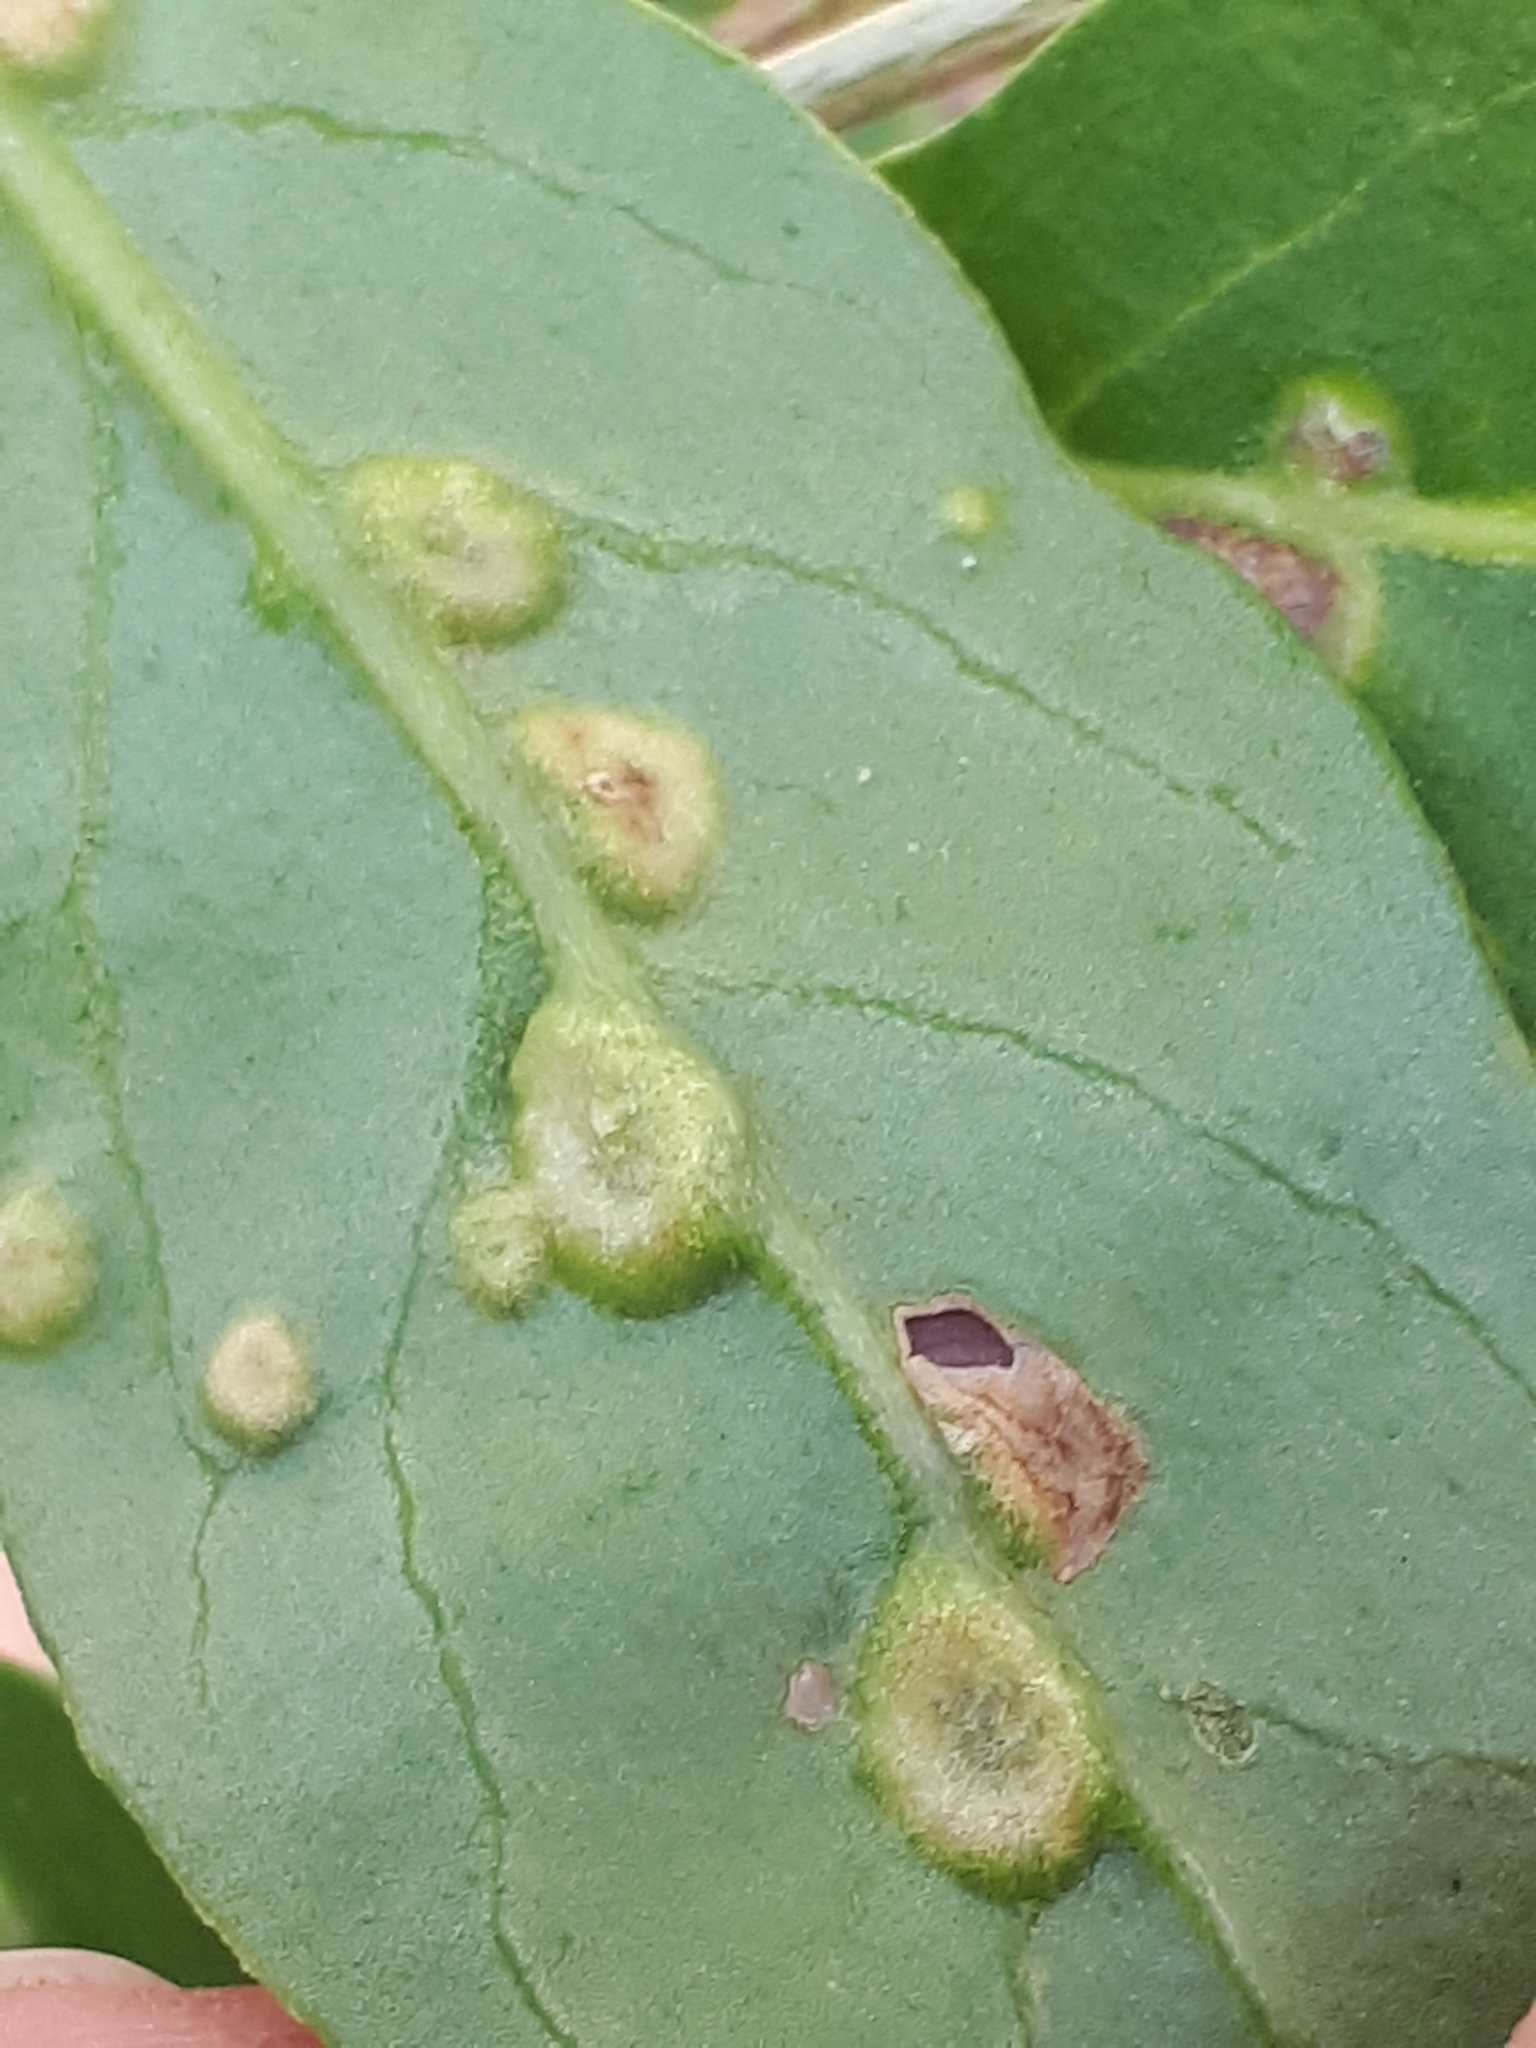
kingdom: Animalia
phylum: Arthropoda
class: Arachnida
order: Trombidiformes
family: Eriophyidae
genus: Aceria
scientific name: Aceria kuko
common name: Goji gall mite
